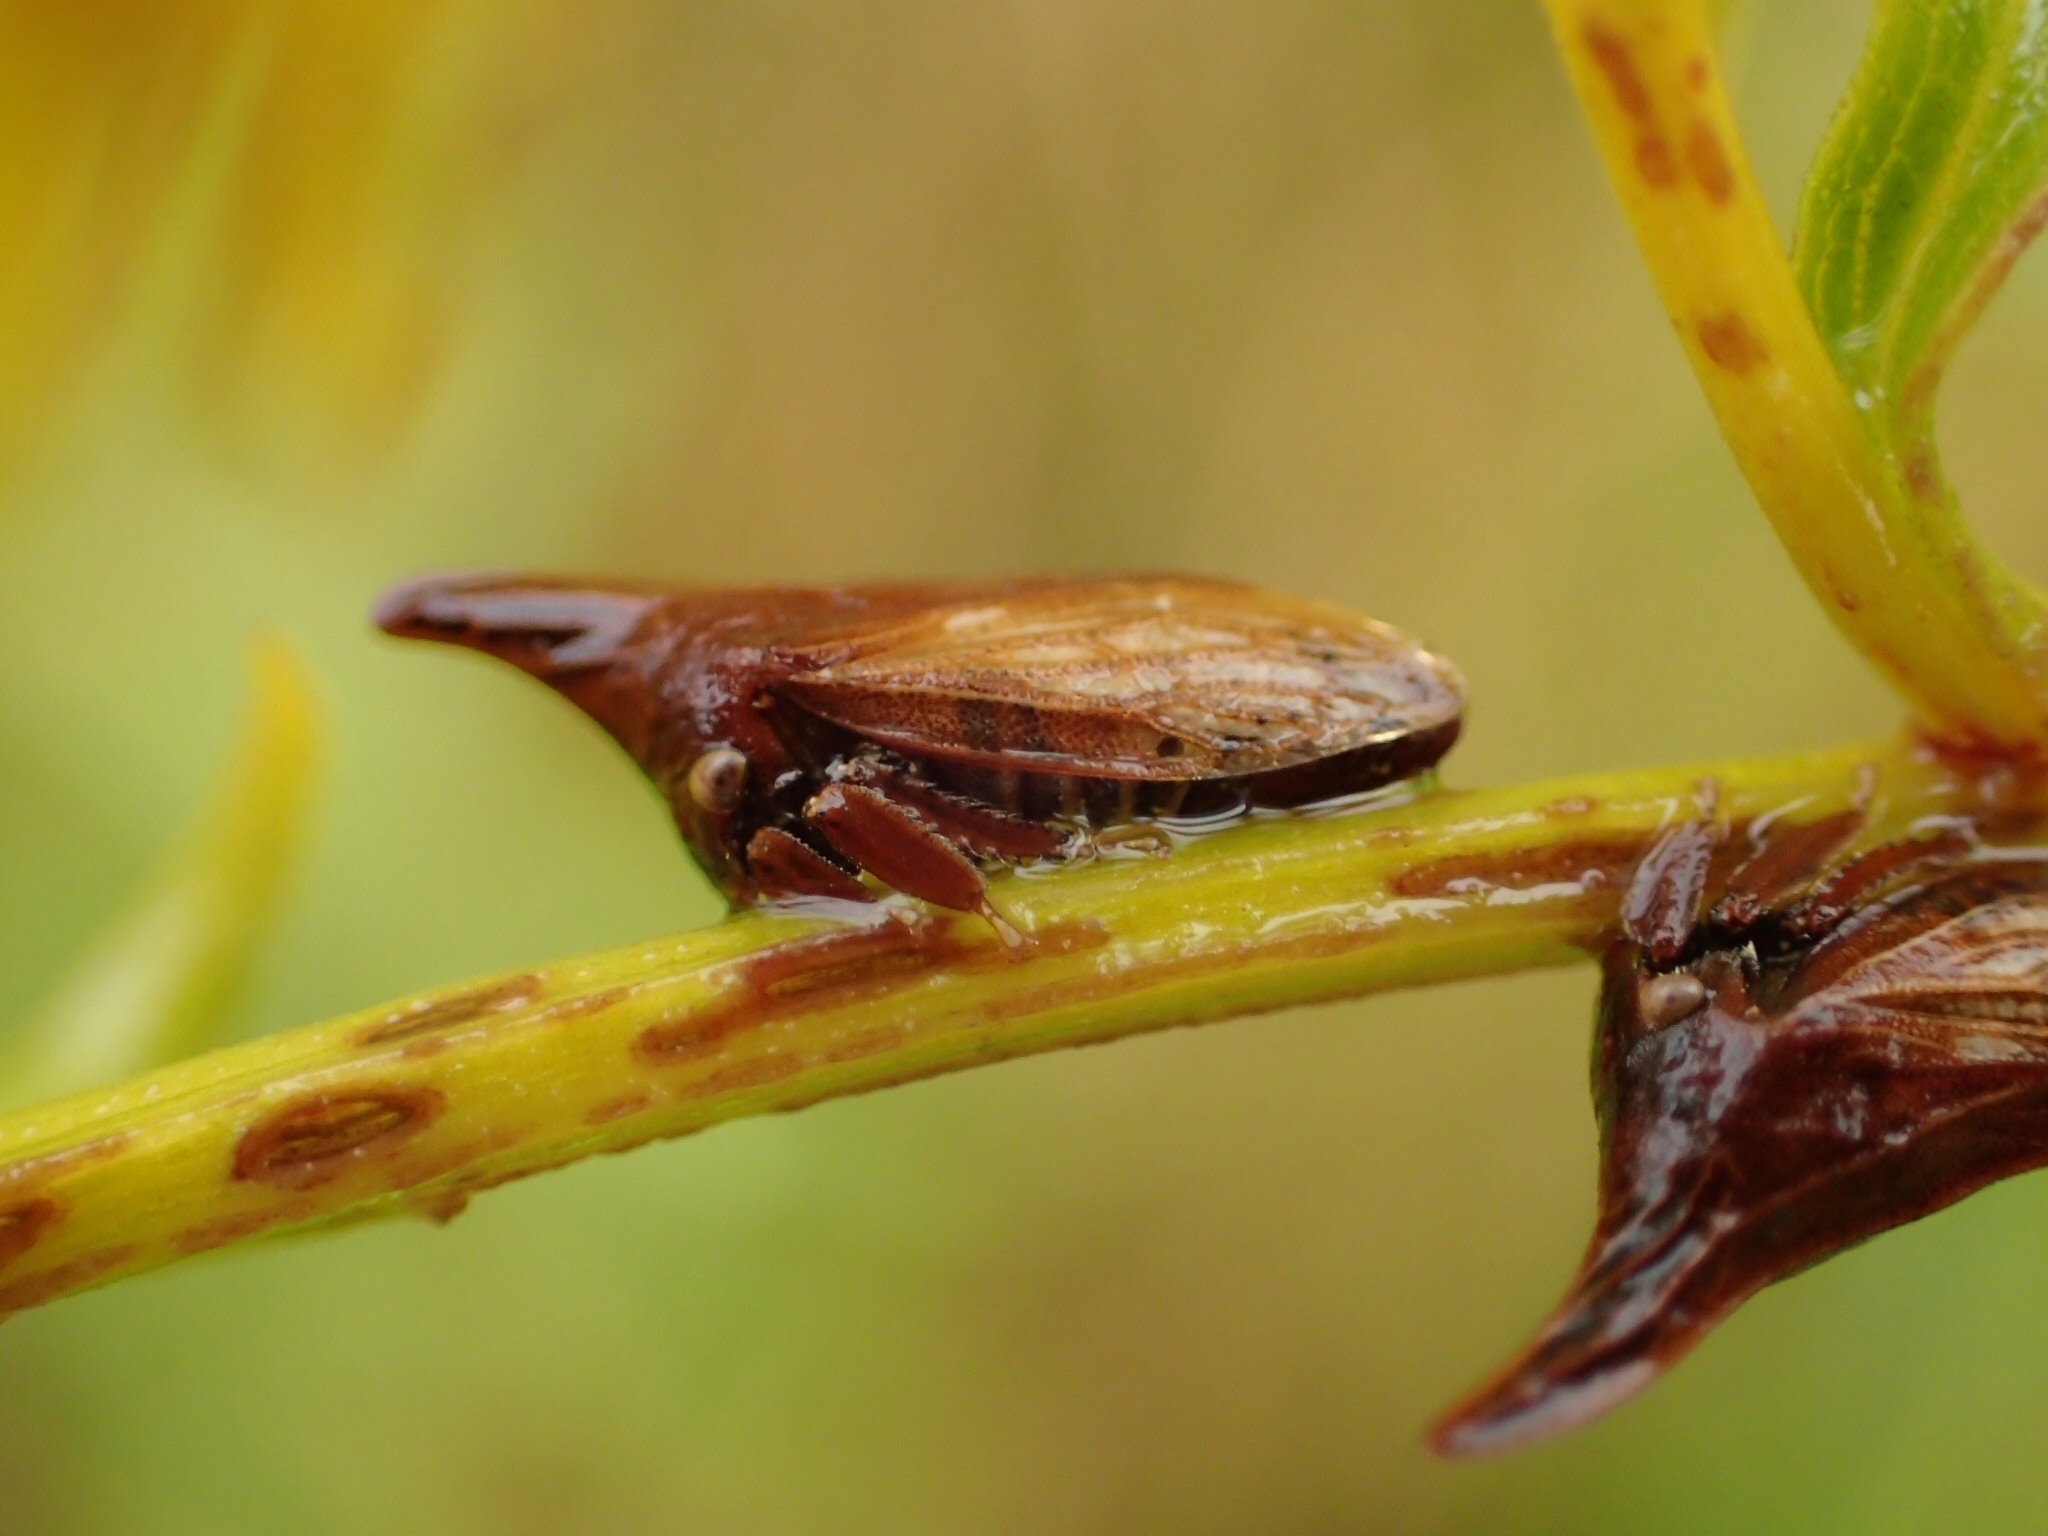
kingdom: Animalia
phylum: Arthropoda
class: Insecta
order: Hemiptera
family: Membracidae
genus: Enchenopa
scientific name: Enchenopa latipes
